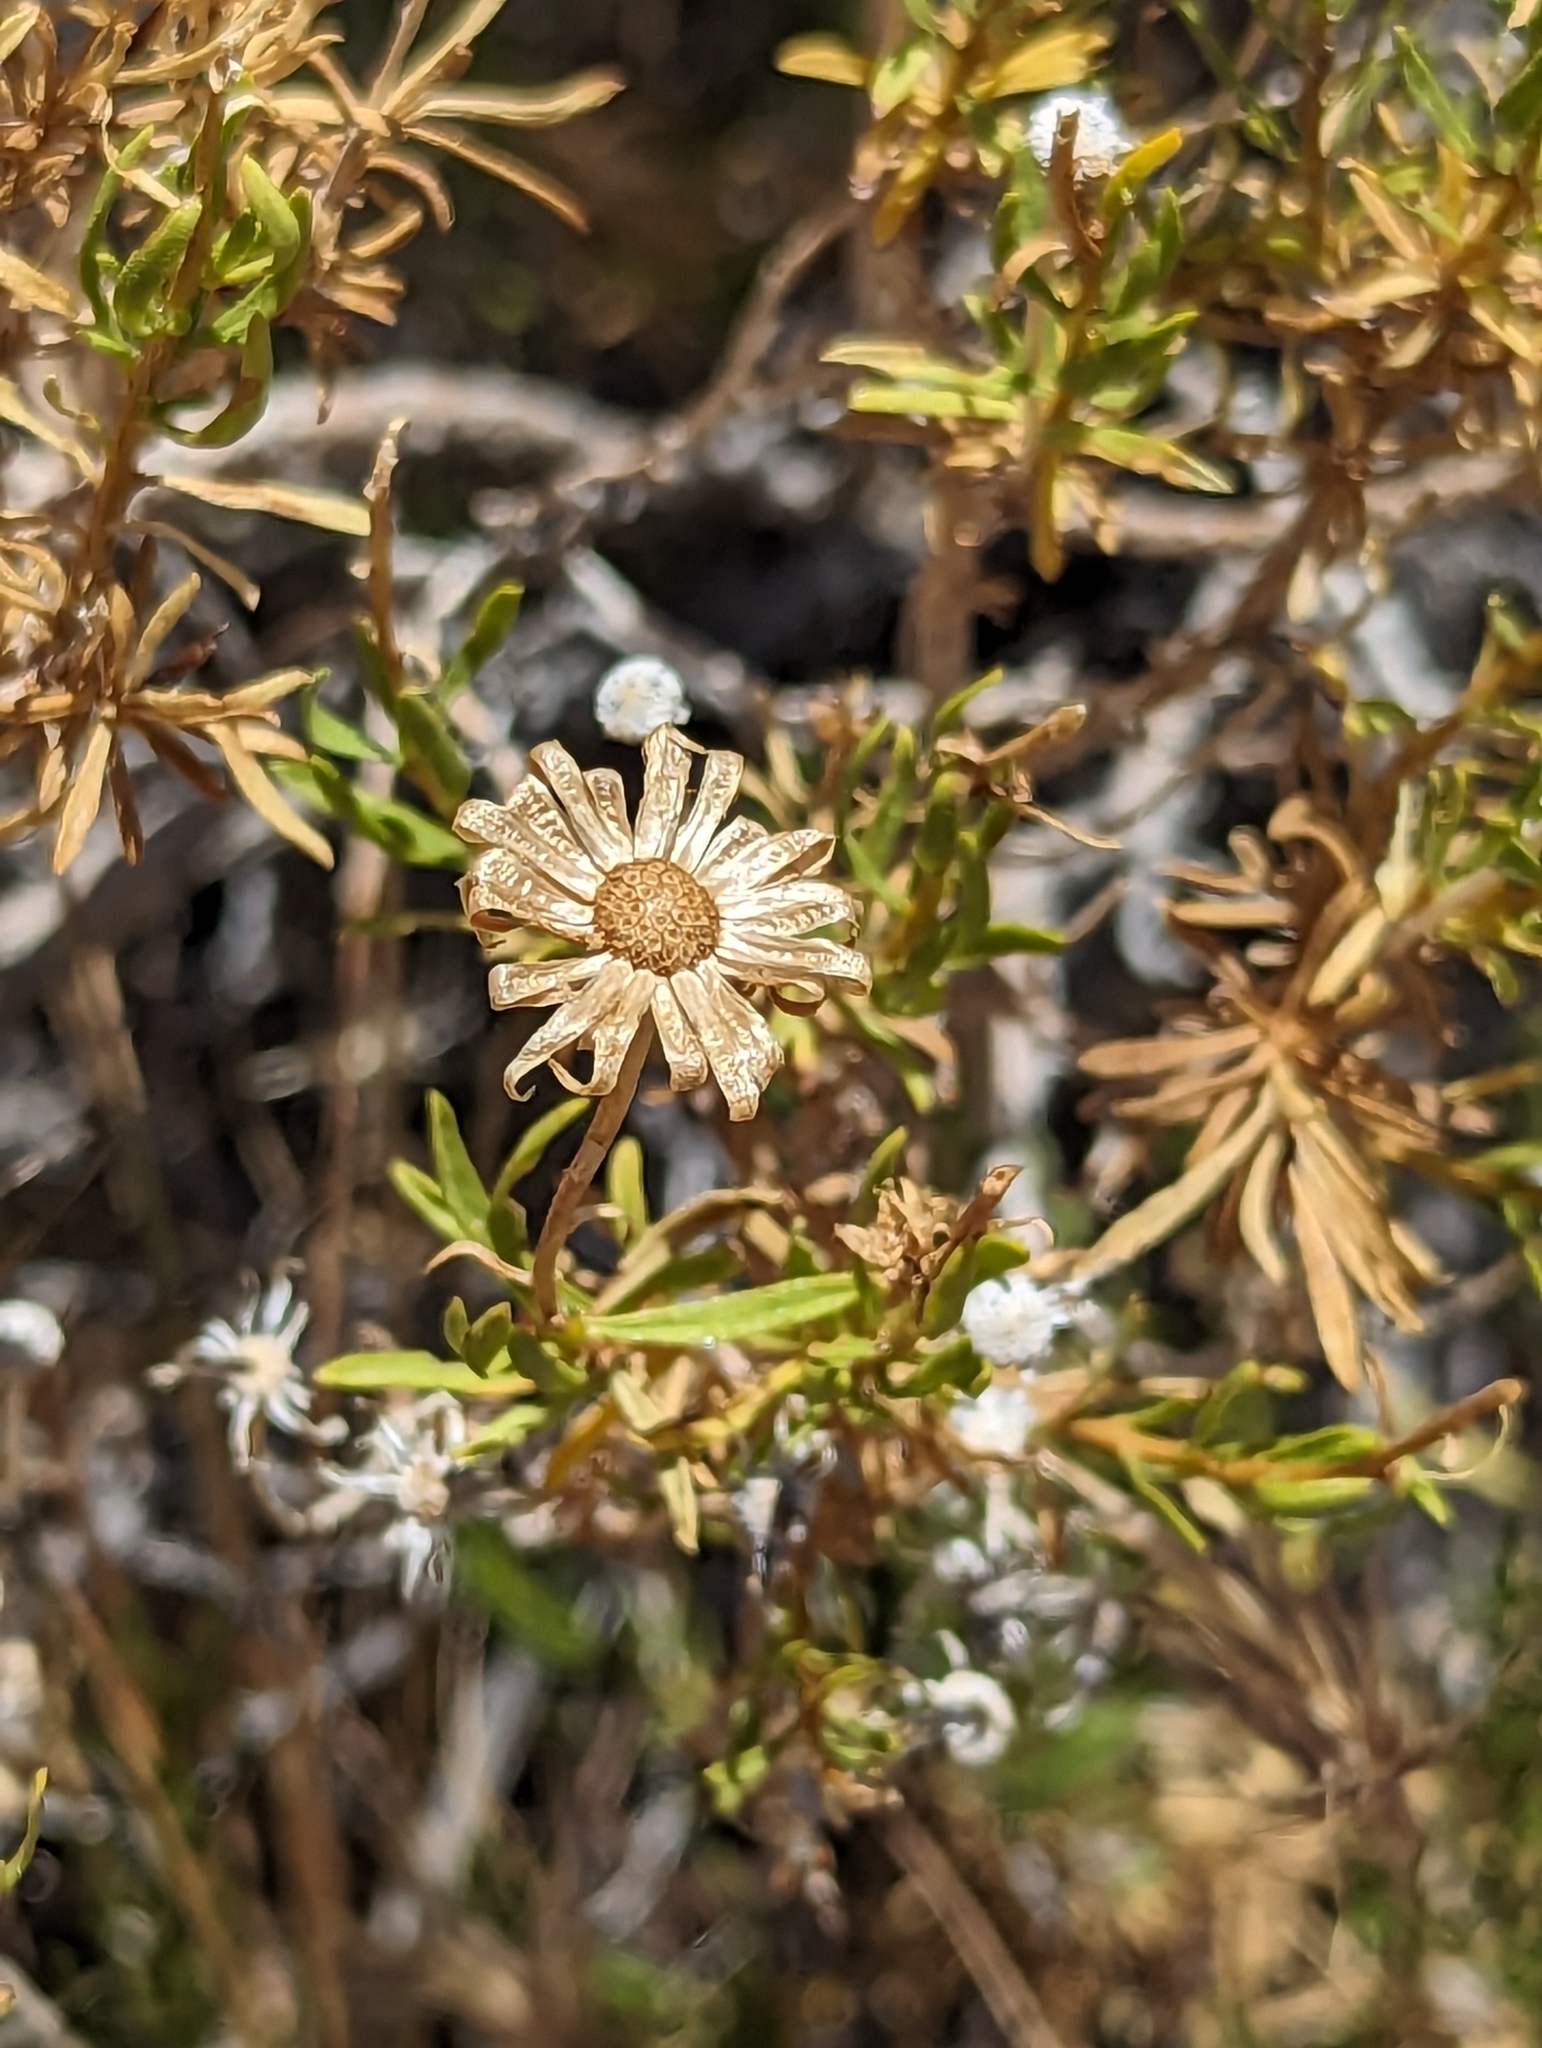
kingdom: Plantae
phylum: Tracheophyta
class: Magnoliopsida
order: Asterales
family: Asteraceae
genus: Ericameria
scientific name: Ericameria linearifolia
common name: Interior goldenbush
